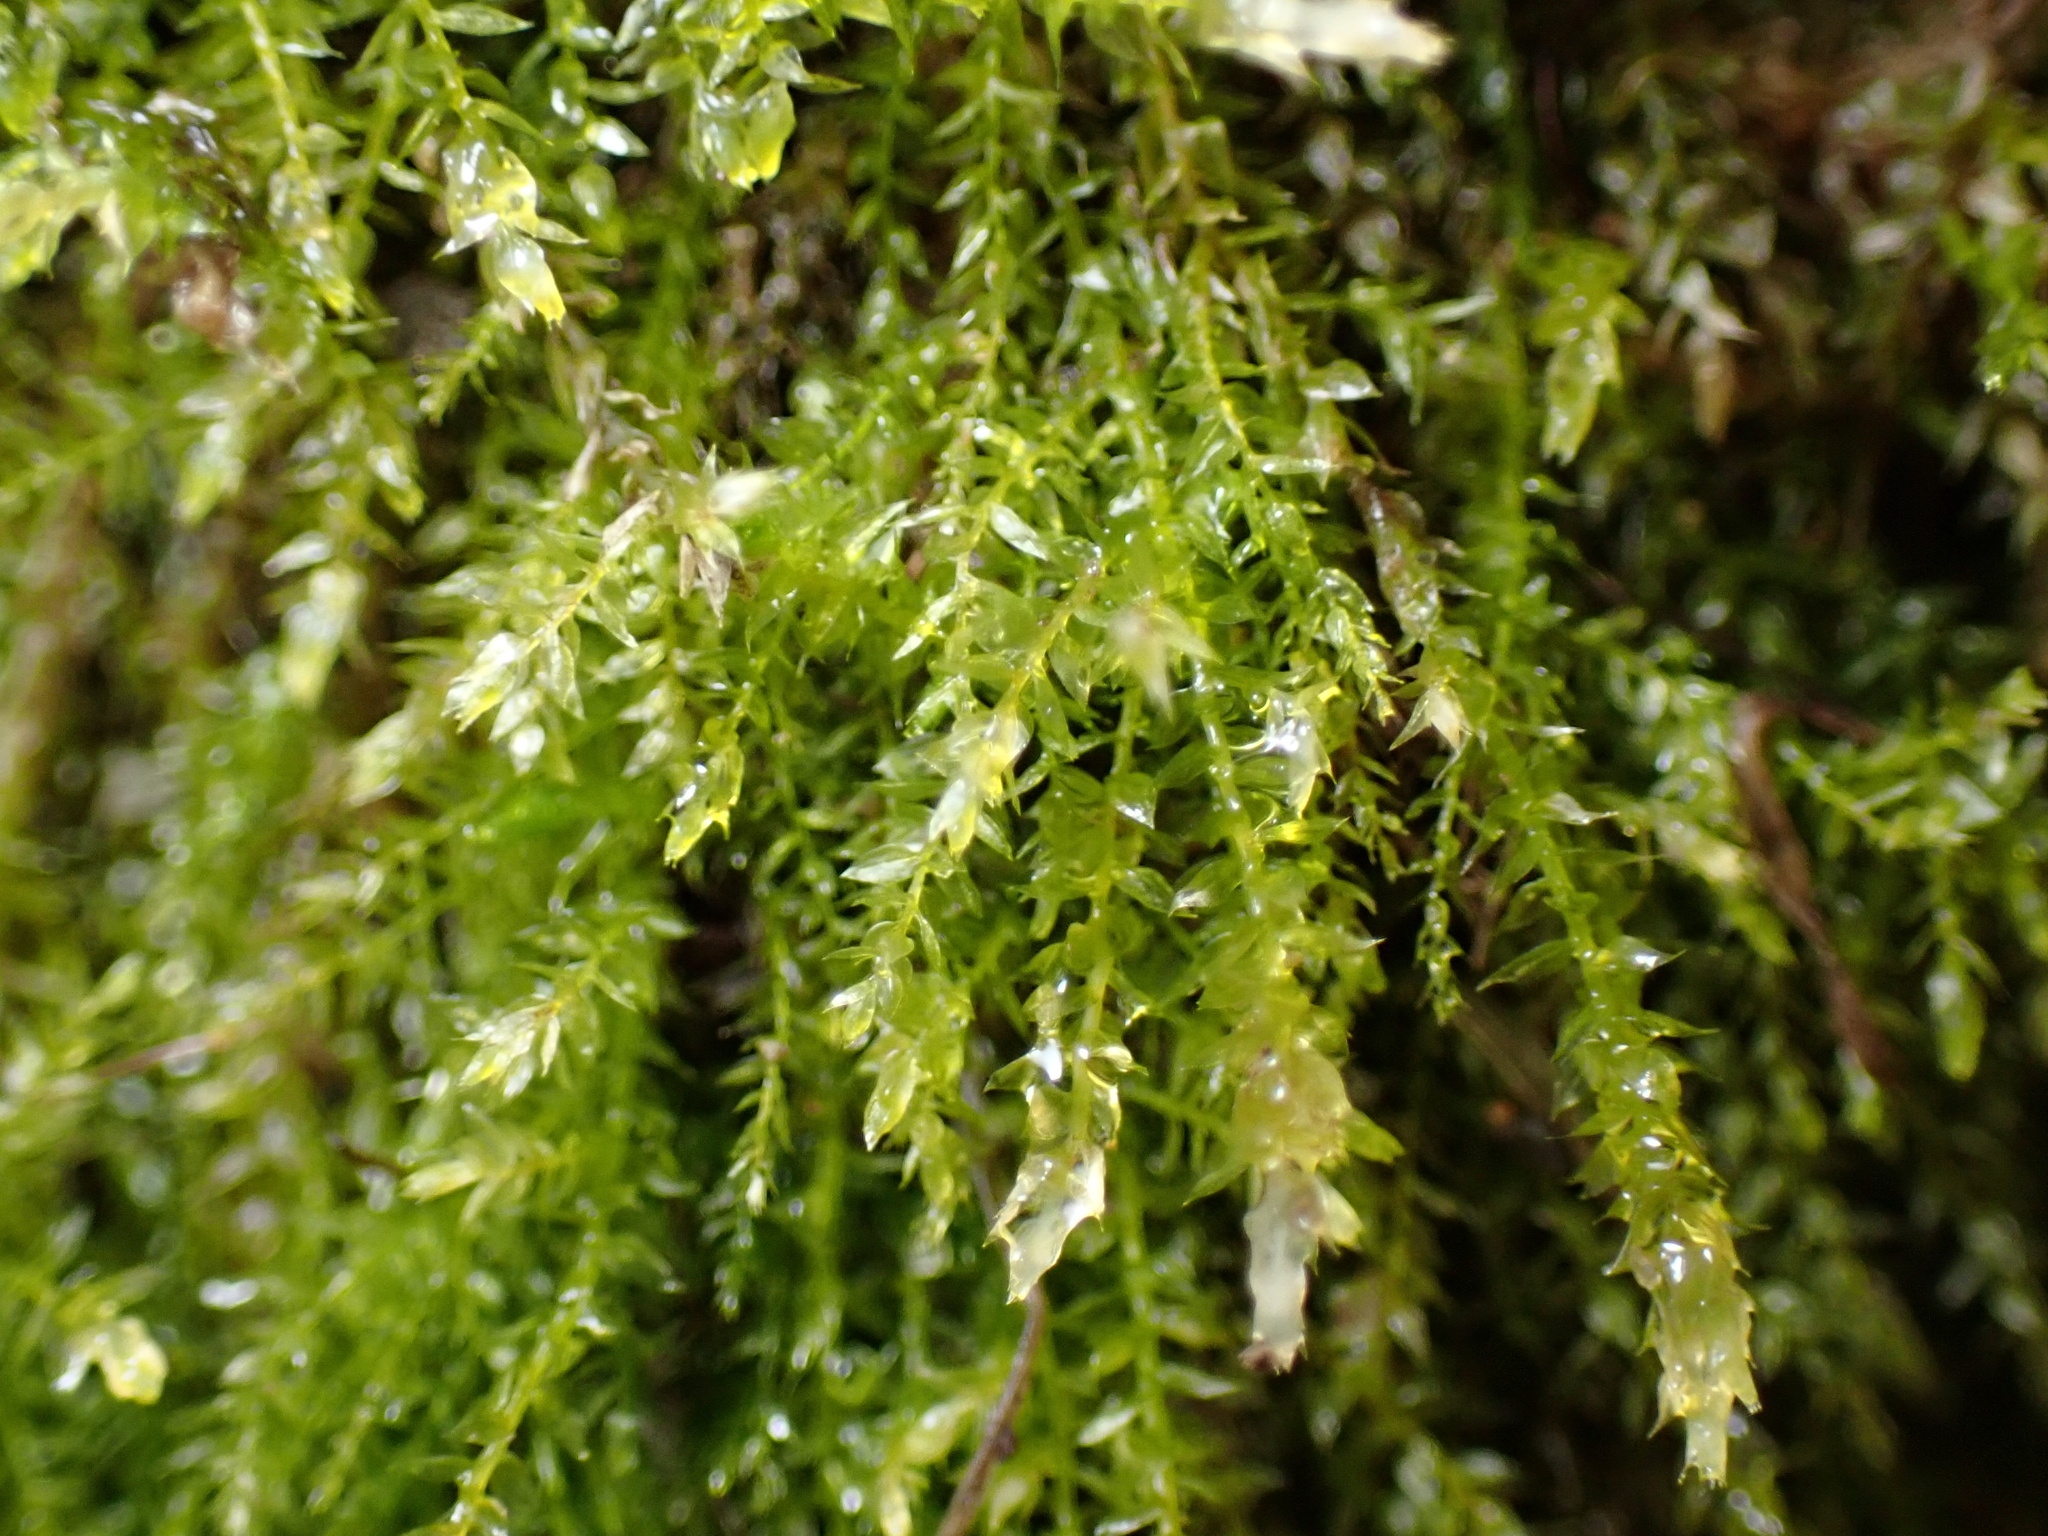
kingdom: Plantae
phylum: Bryophyta
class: Bryopsida
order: Bryales
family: Mniaceae
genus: Plagiomnium
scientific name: Plagiomnium cuspidatum
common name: Woodsy leafy moss
